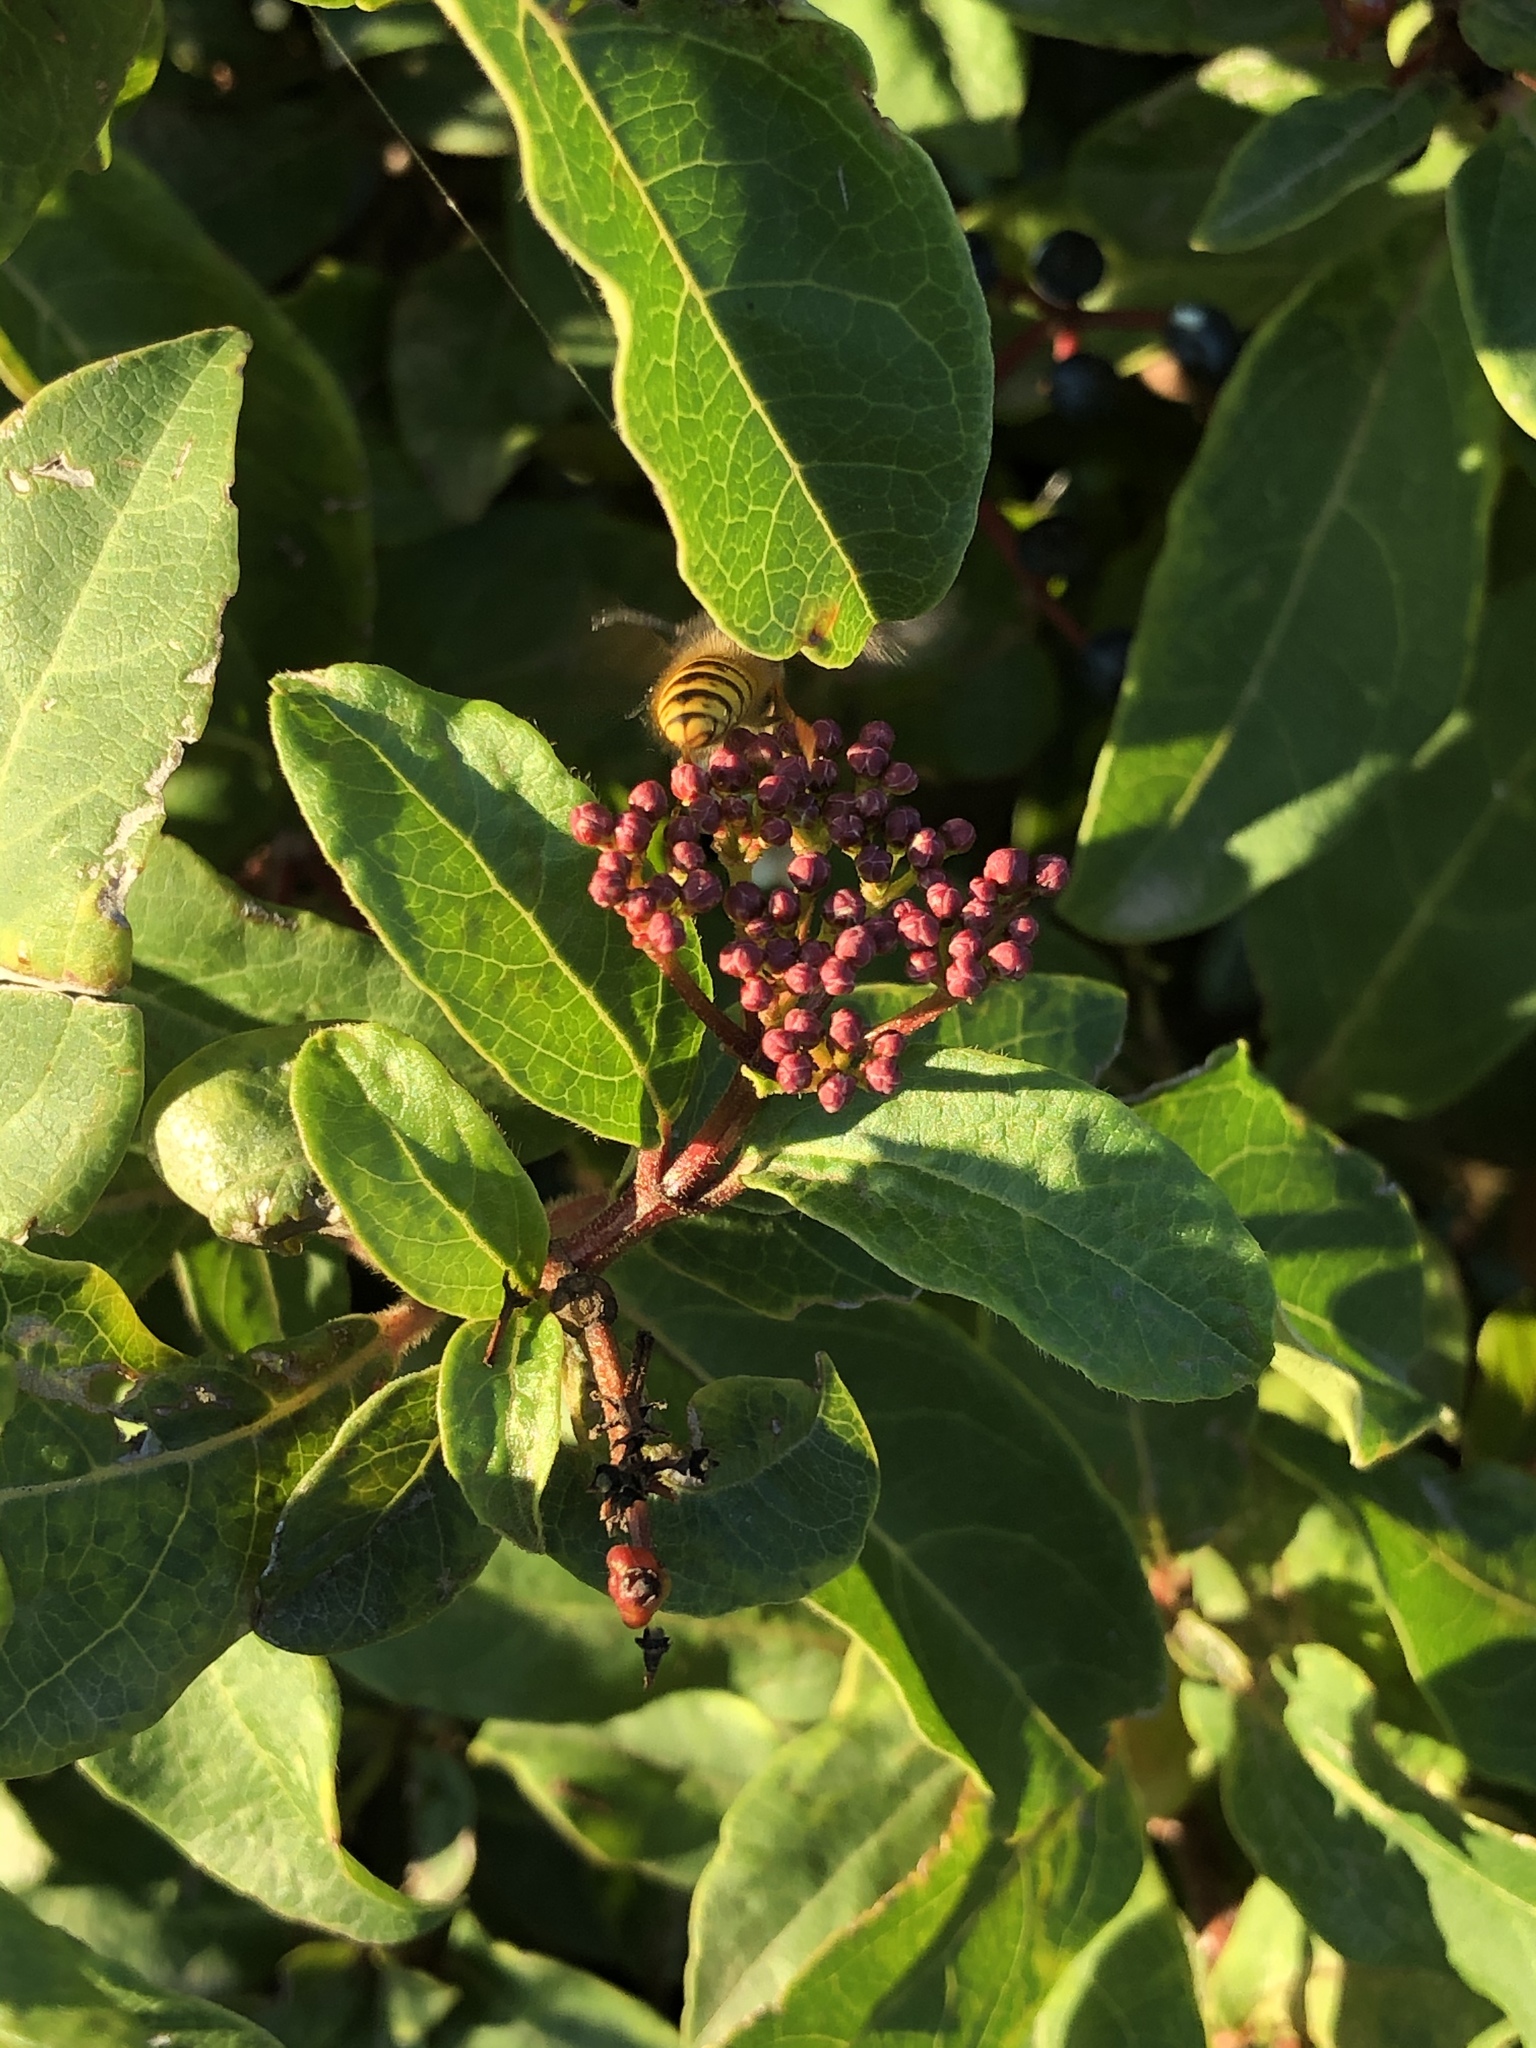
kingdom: Animalia
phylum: Arthropoda
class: Insecta
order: Hymenoptera
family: Vespidae
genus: Vespula
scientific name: Vespula vulgaris
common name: Common wasp
